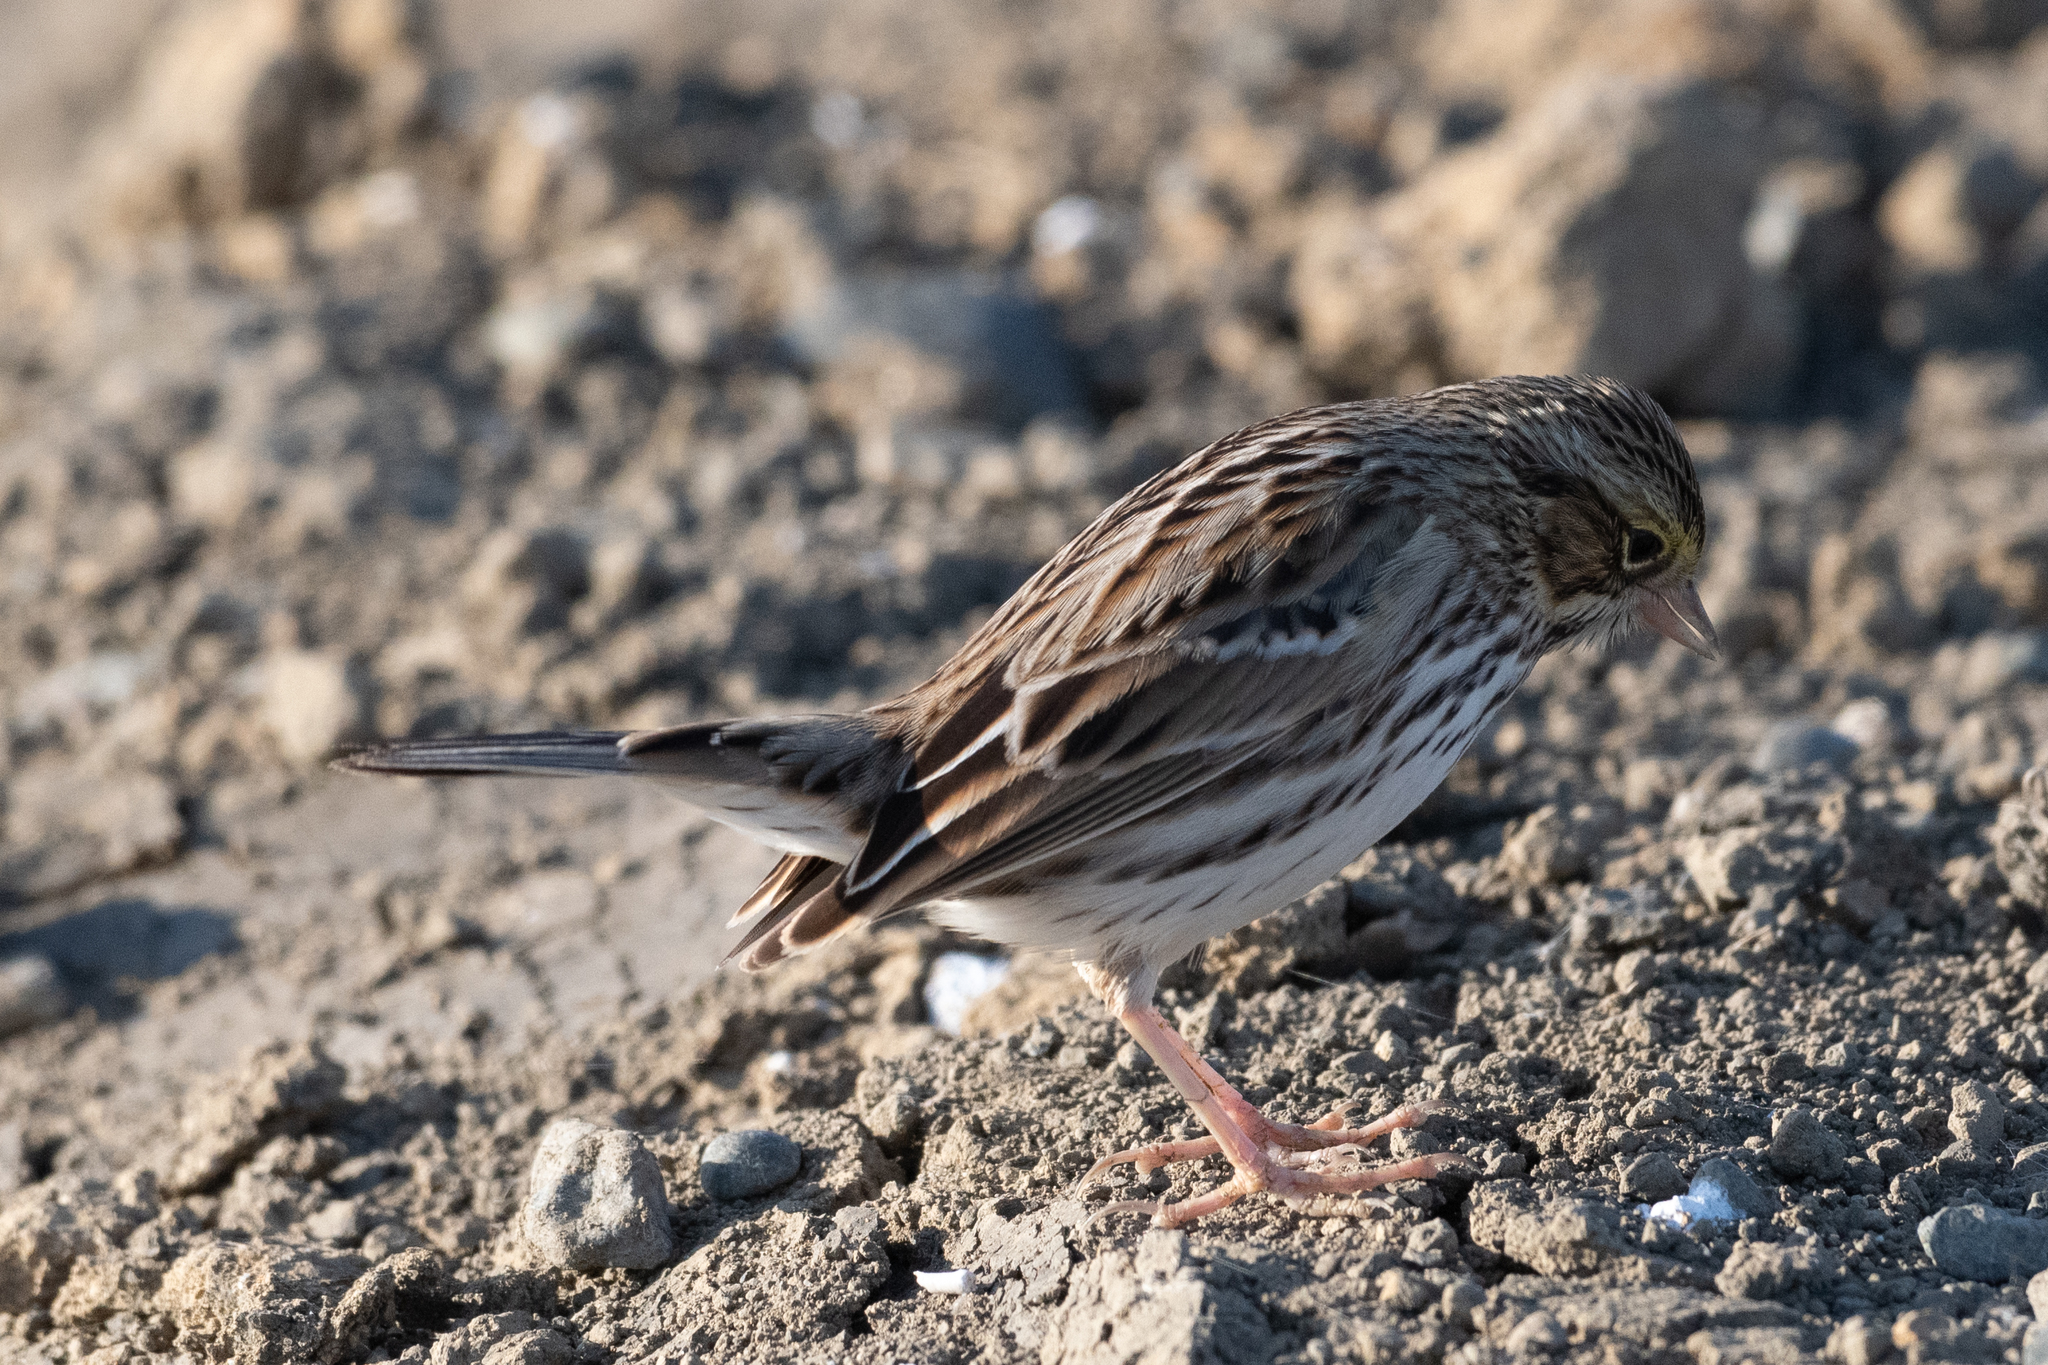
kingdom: Animalia
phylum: Chordata
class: Aves
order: Passeriformes
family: Passerellidae
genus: Passerculus
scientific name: Passerculus sandwichensis
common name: Savannah sparrow
